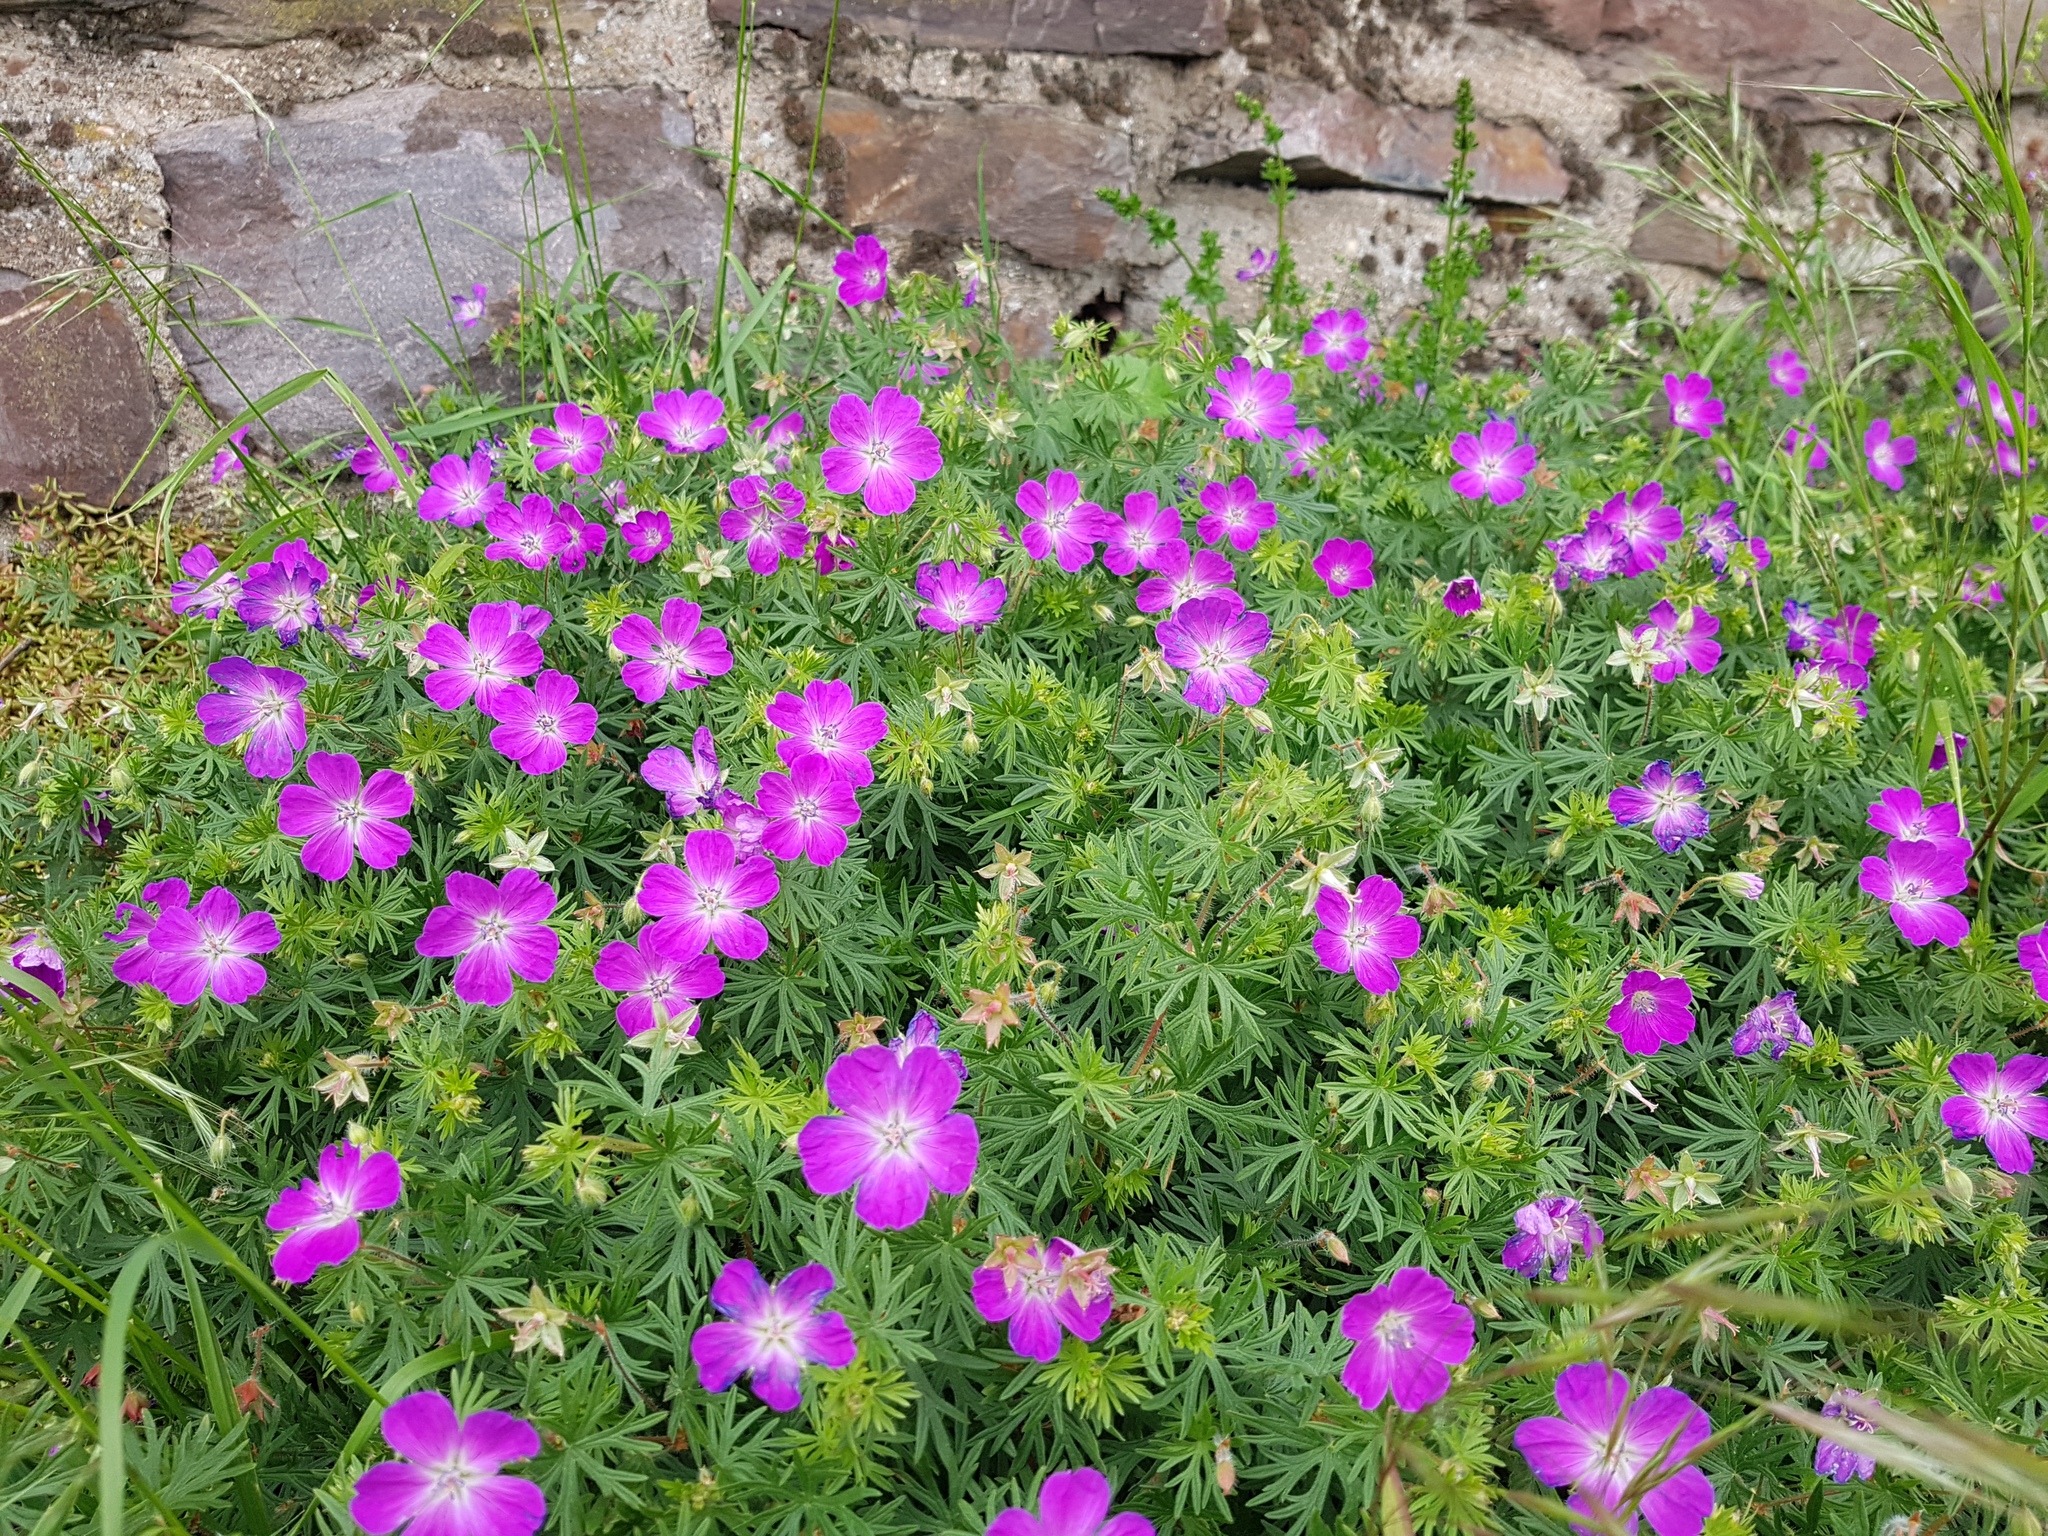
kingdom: Plantae
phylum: Tracheophyta
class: Magnoliopsida
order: Geraniales
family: Geraniaceae
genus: Geranium
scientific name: Geranium sanguineum
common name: Bloody crane's-bill
